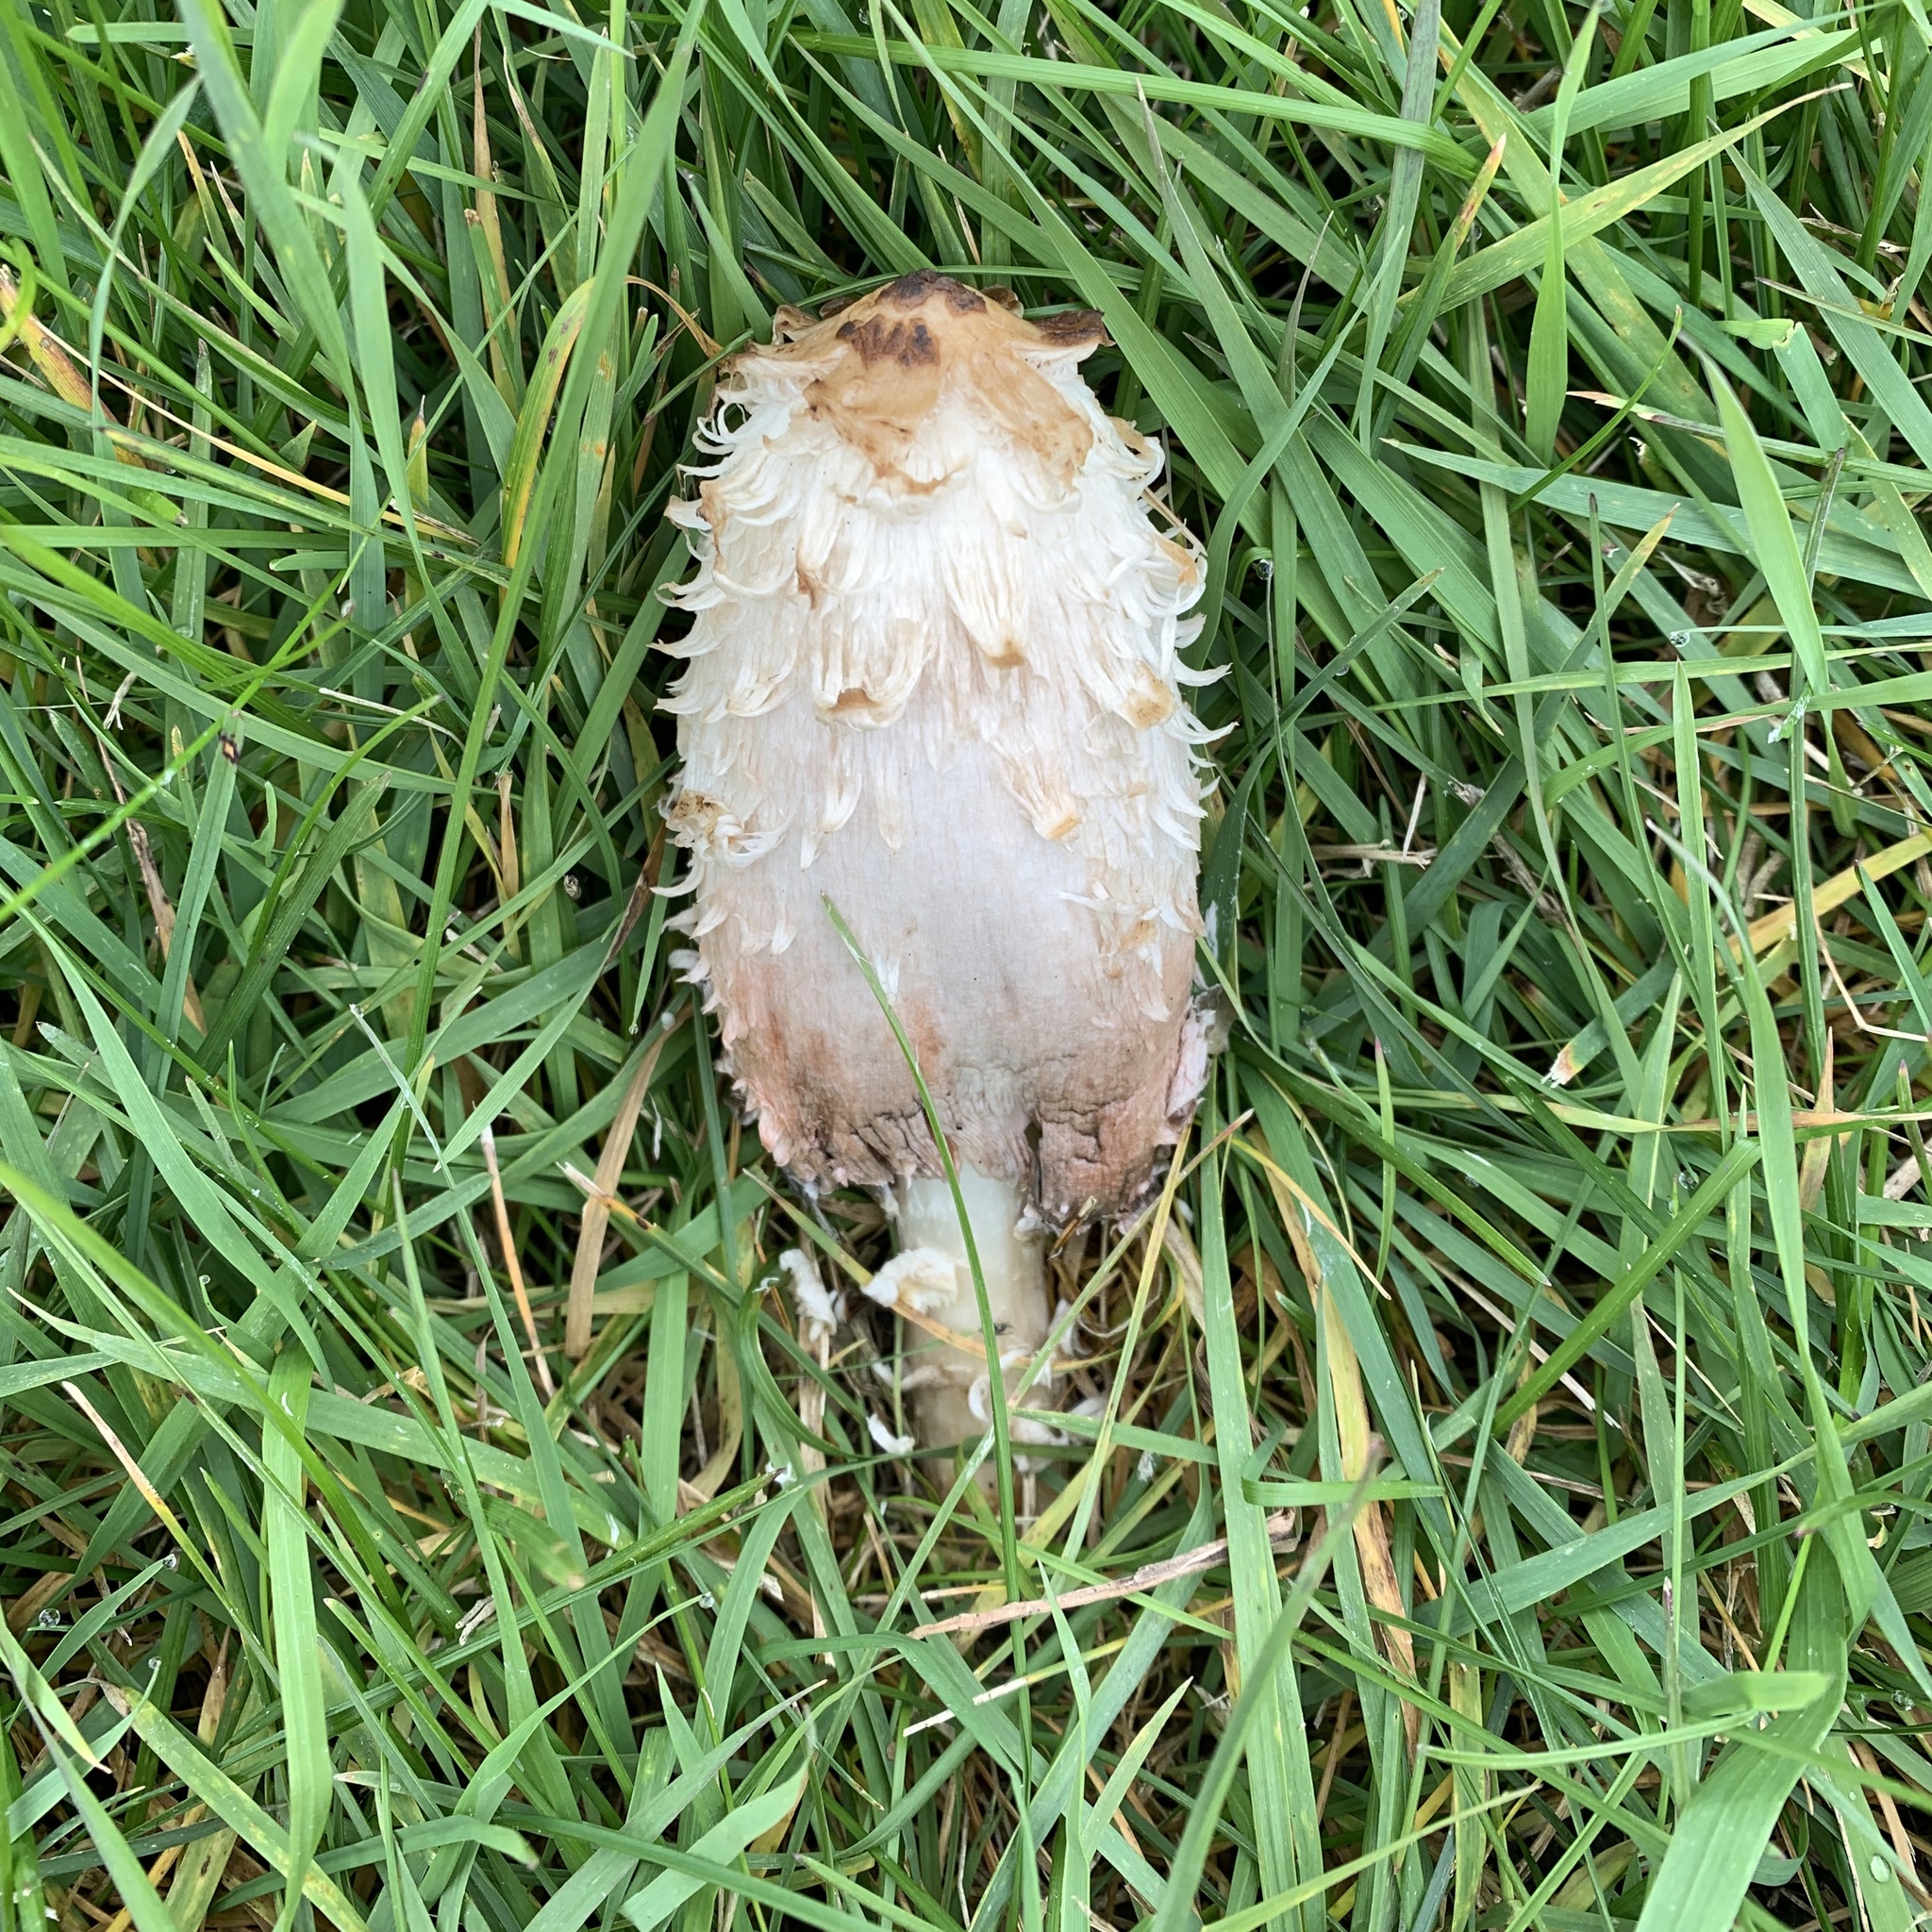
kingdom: Fungi
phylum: Basidiomycota
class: Agaricomycetes
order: Agaricales
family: Agaricaceae
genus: Coprinus
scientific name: Coprinus comatus
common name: Lawyer's wig
